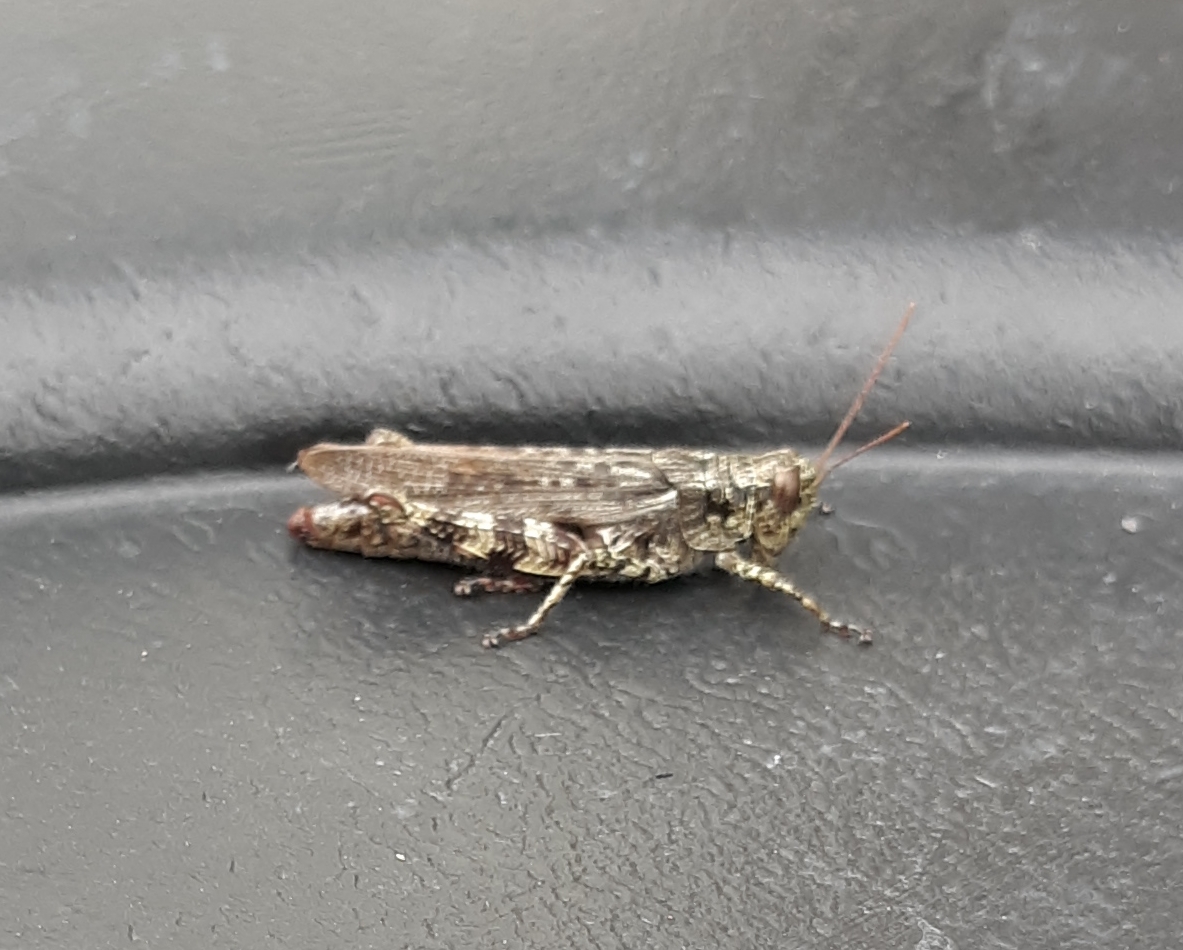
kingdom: Animalia
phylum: Arthropoda
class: Insecta
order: Orthoptera
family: Acrididae
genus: Melanoplus
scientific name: Melanoplus punctulatus
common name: Pine-tree spur-throat grasshopper
